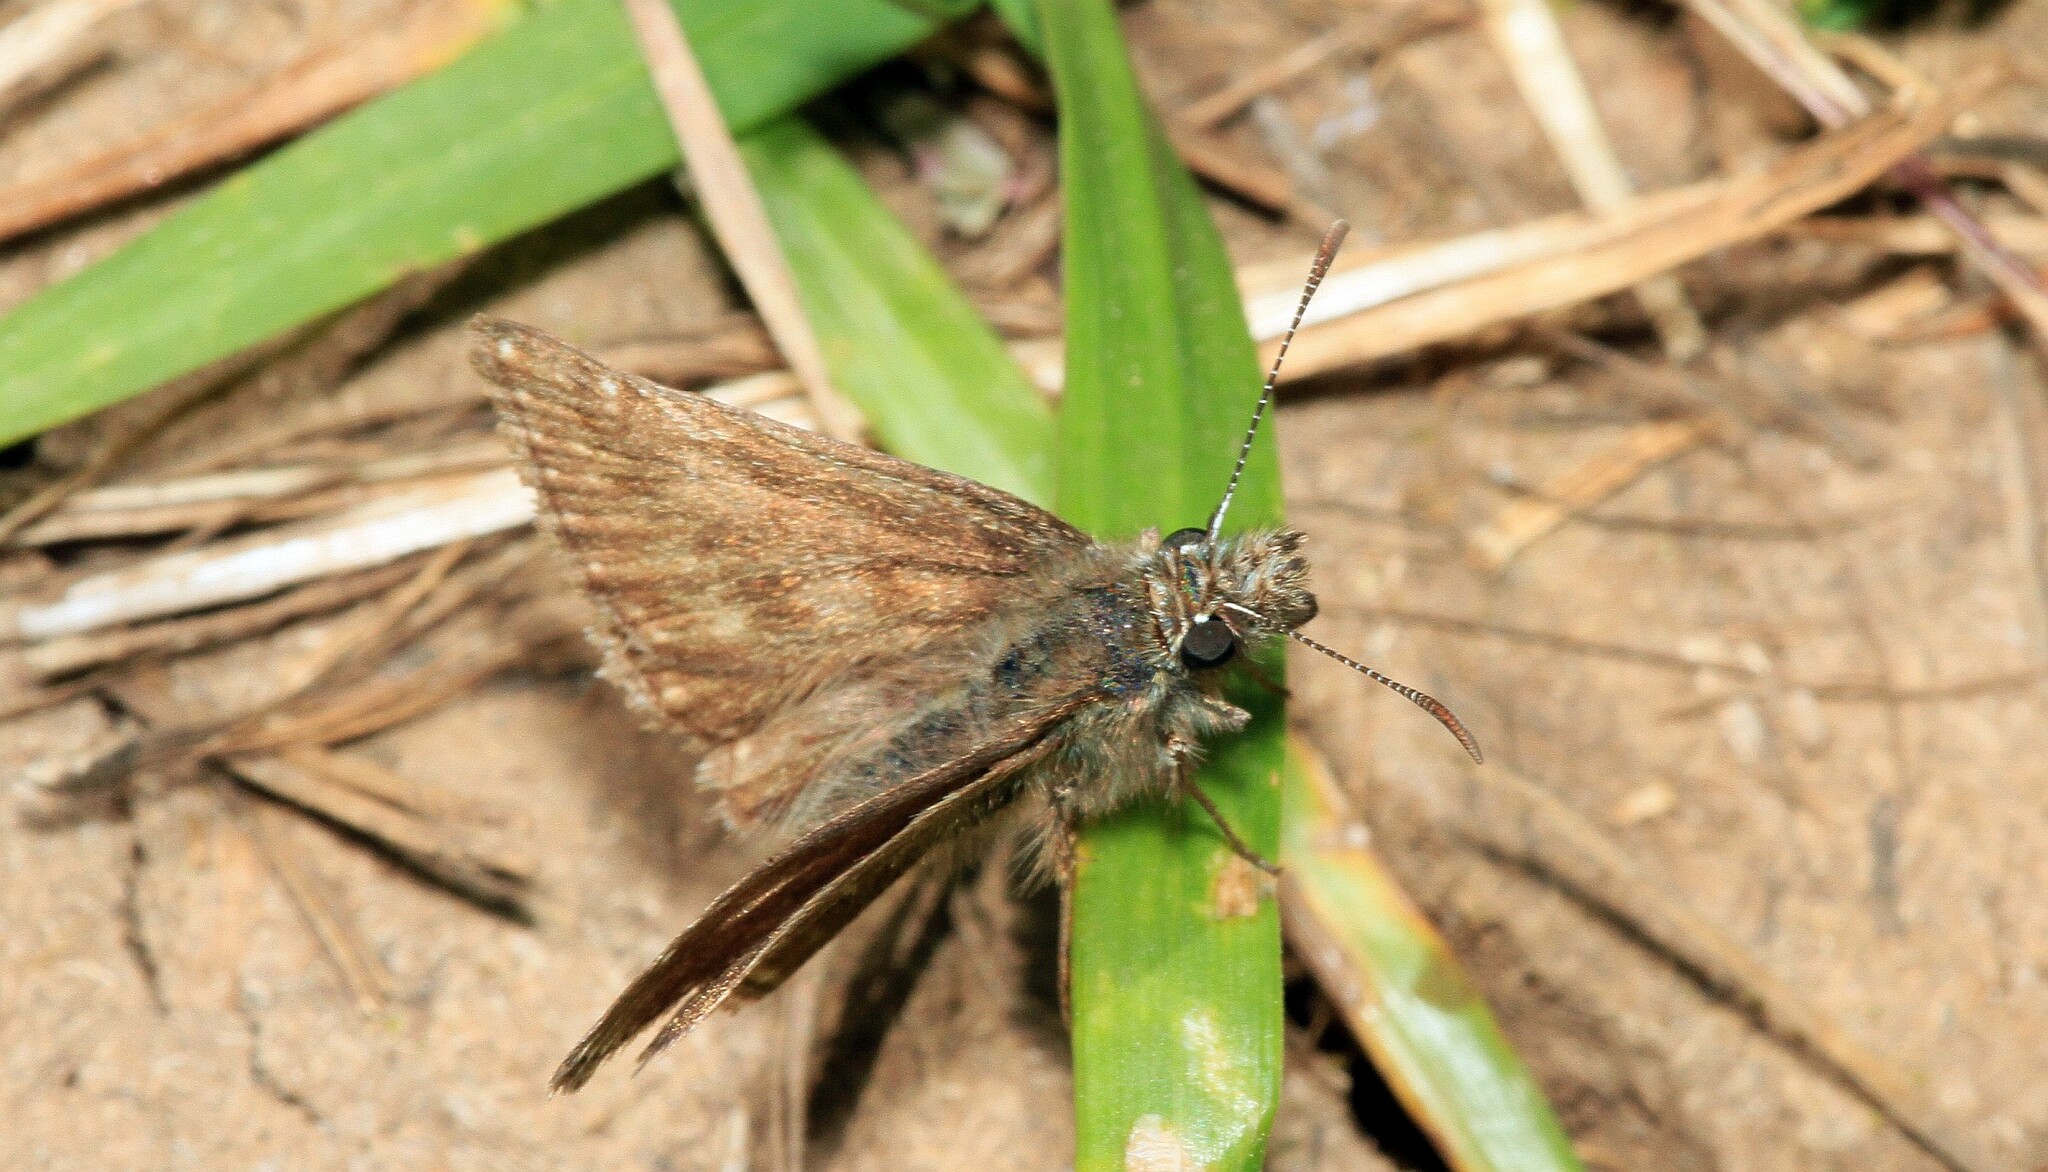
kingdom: Animalia
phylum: Arthropoda
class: Insecta
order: Lepidoptera
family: Hesperiidae
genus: Erynnis
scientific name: Erynnis tages
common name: Dingy skipper
